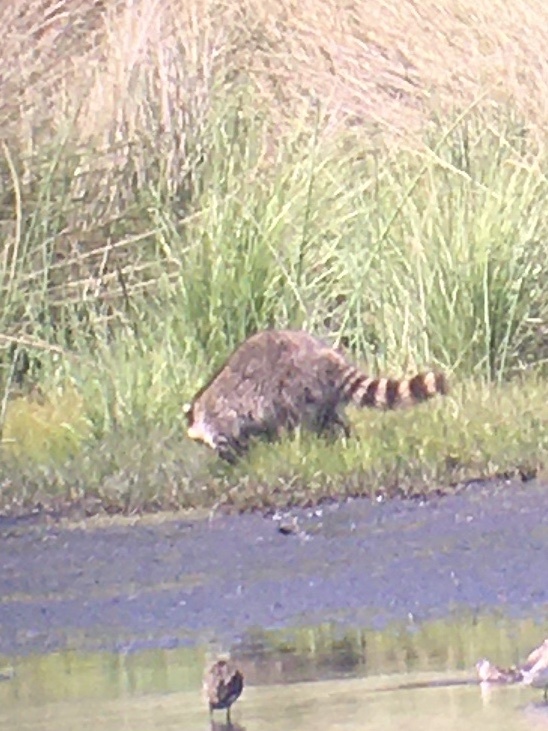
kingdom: Animalia
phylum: Chordata
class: Mammalia
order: Carnivora
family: Procyonidae
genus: Procyon
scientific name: Procyon lotor
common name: Raccoon
